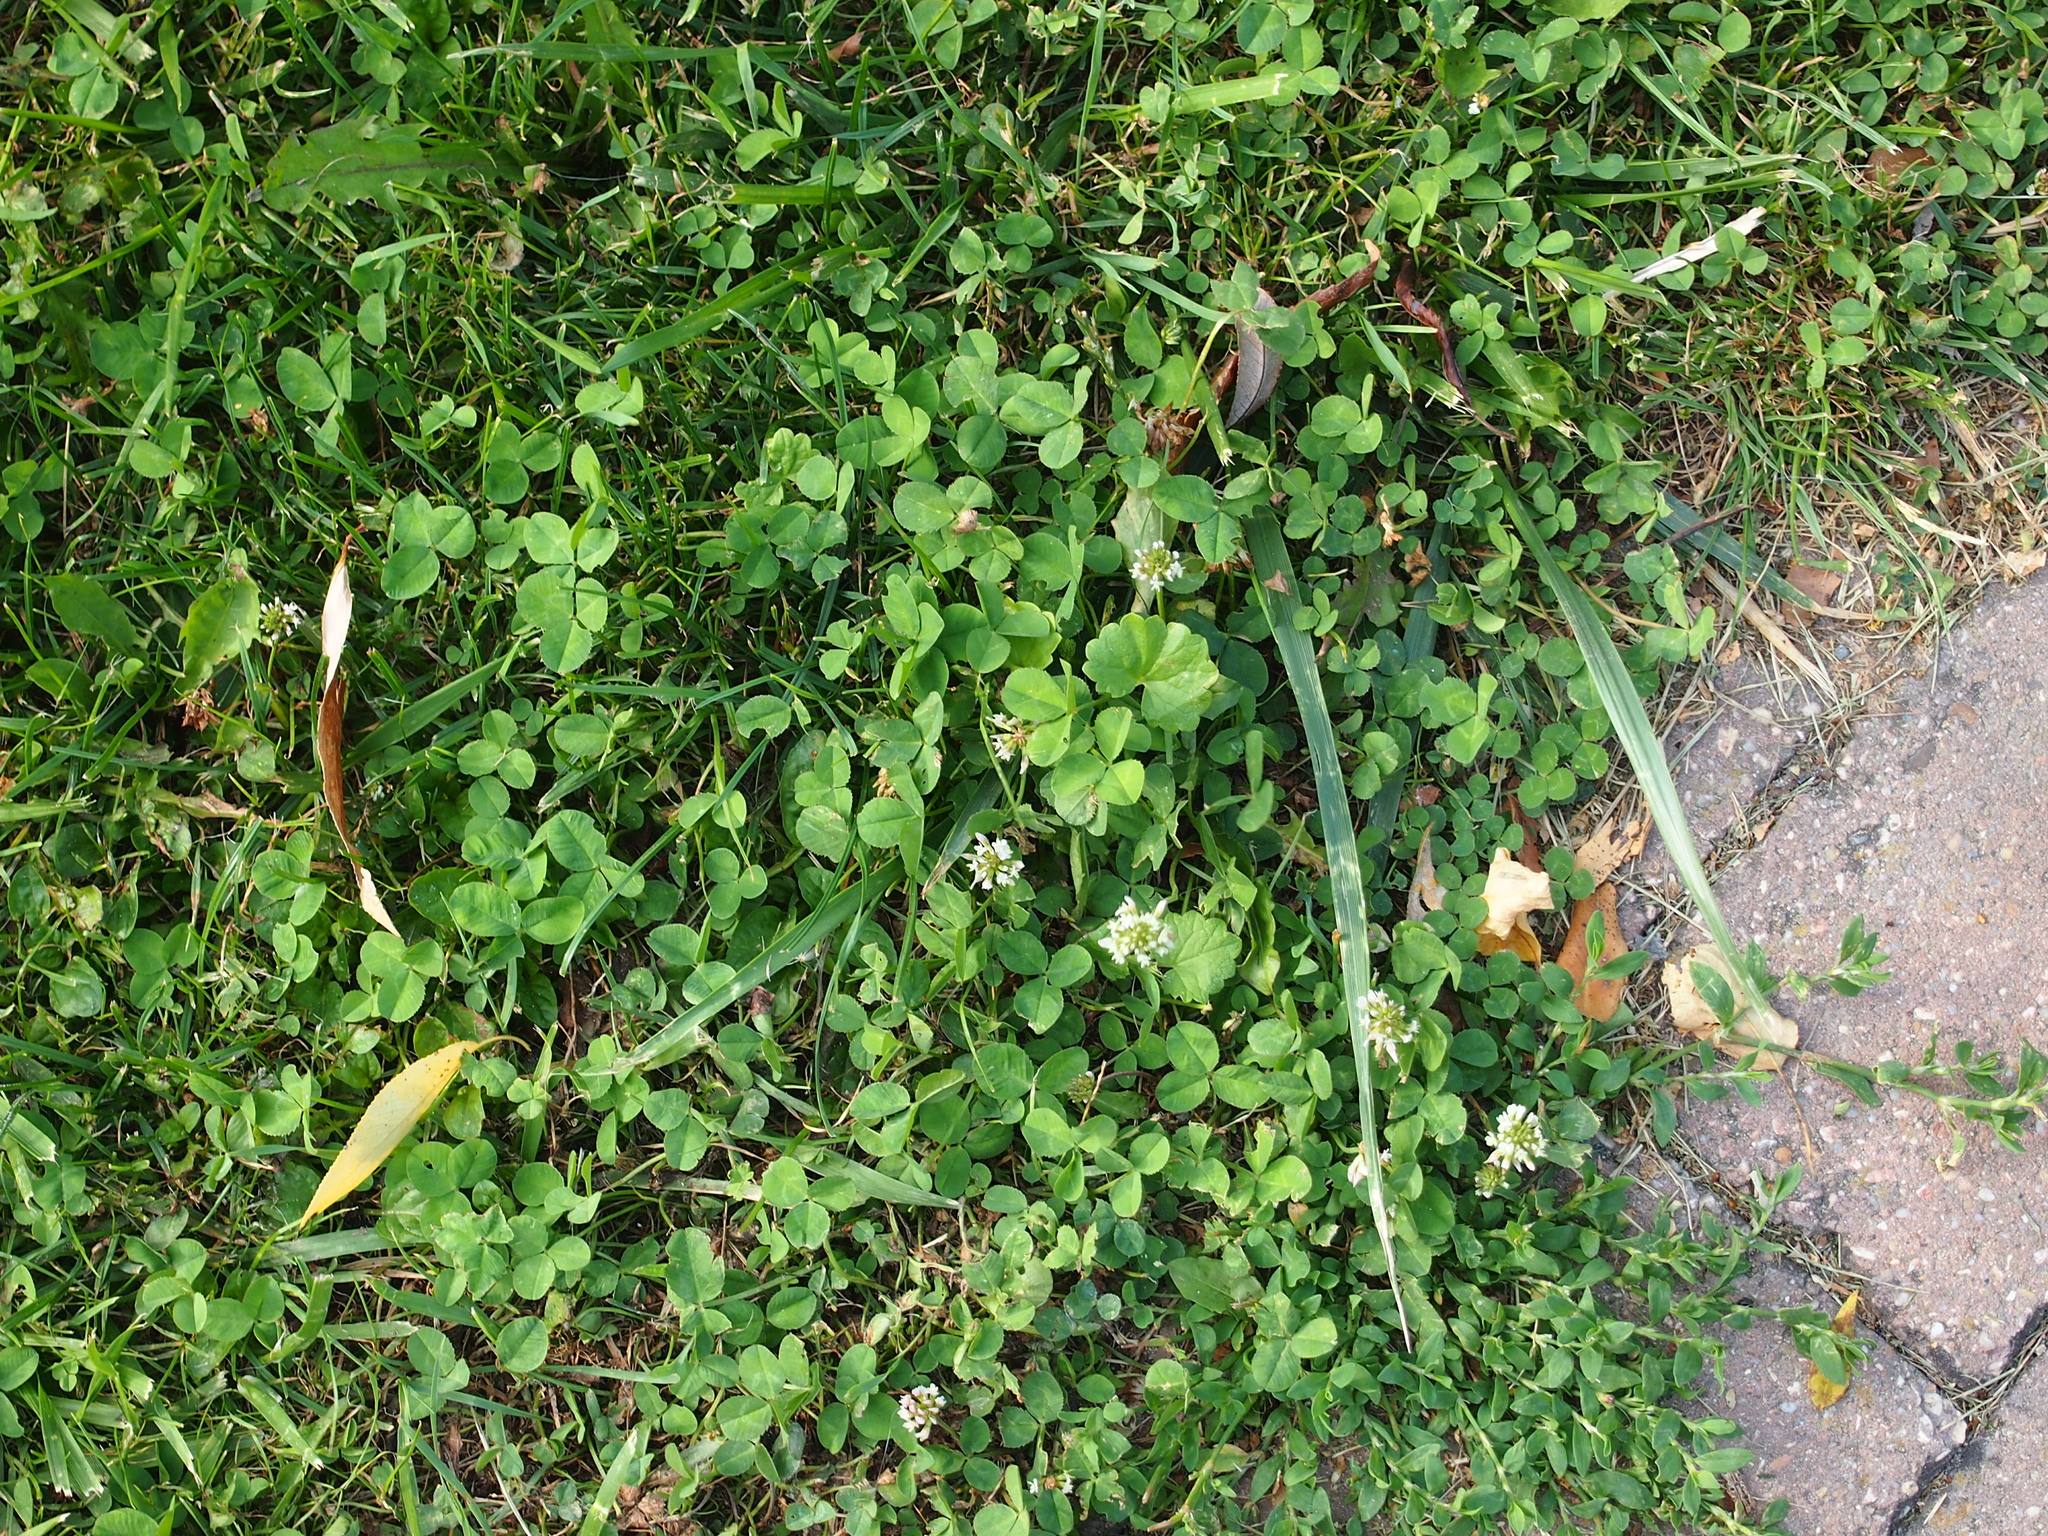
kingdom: Plantae
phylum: Tracheophyta
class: Magnoliopsida
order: Fabales
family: Fabaceae
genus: Trifolium
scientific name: Trifolium repens
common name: White clover
